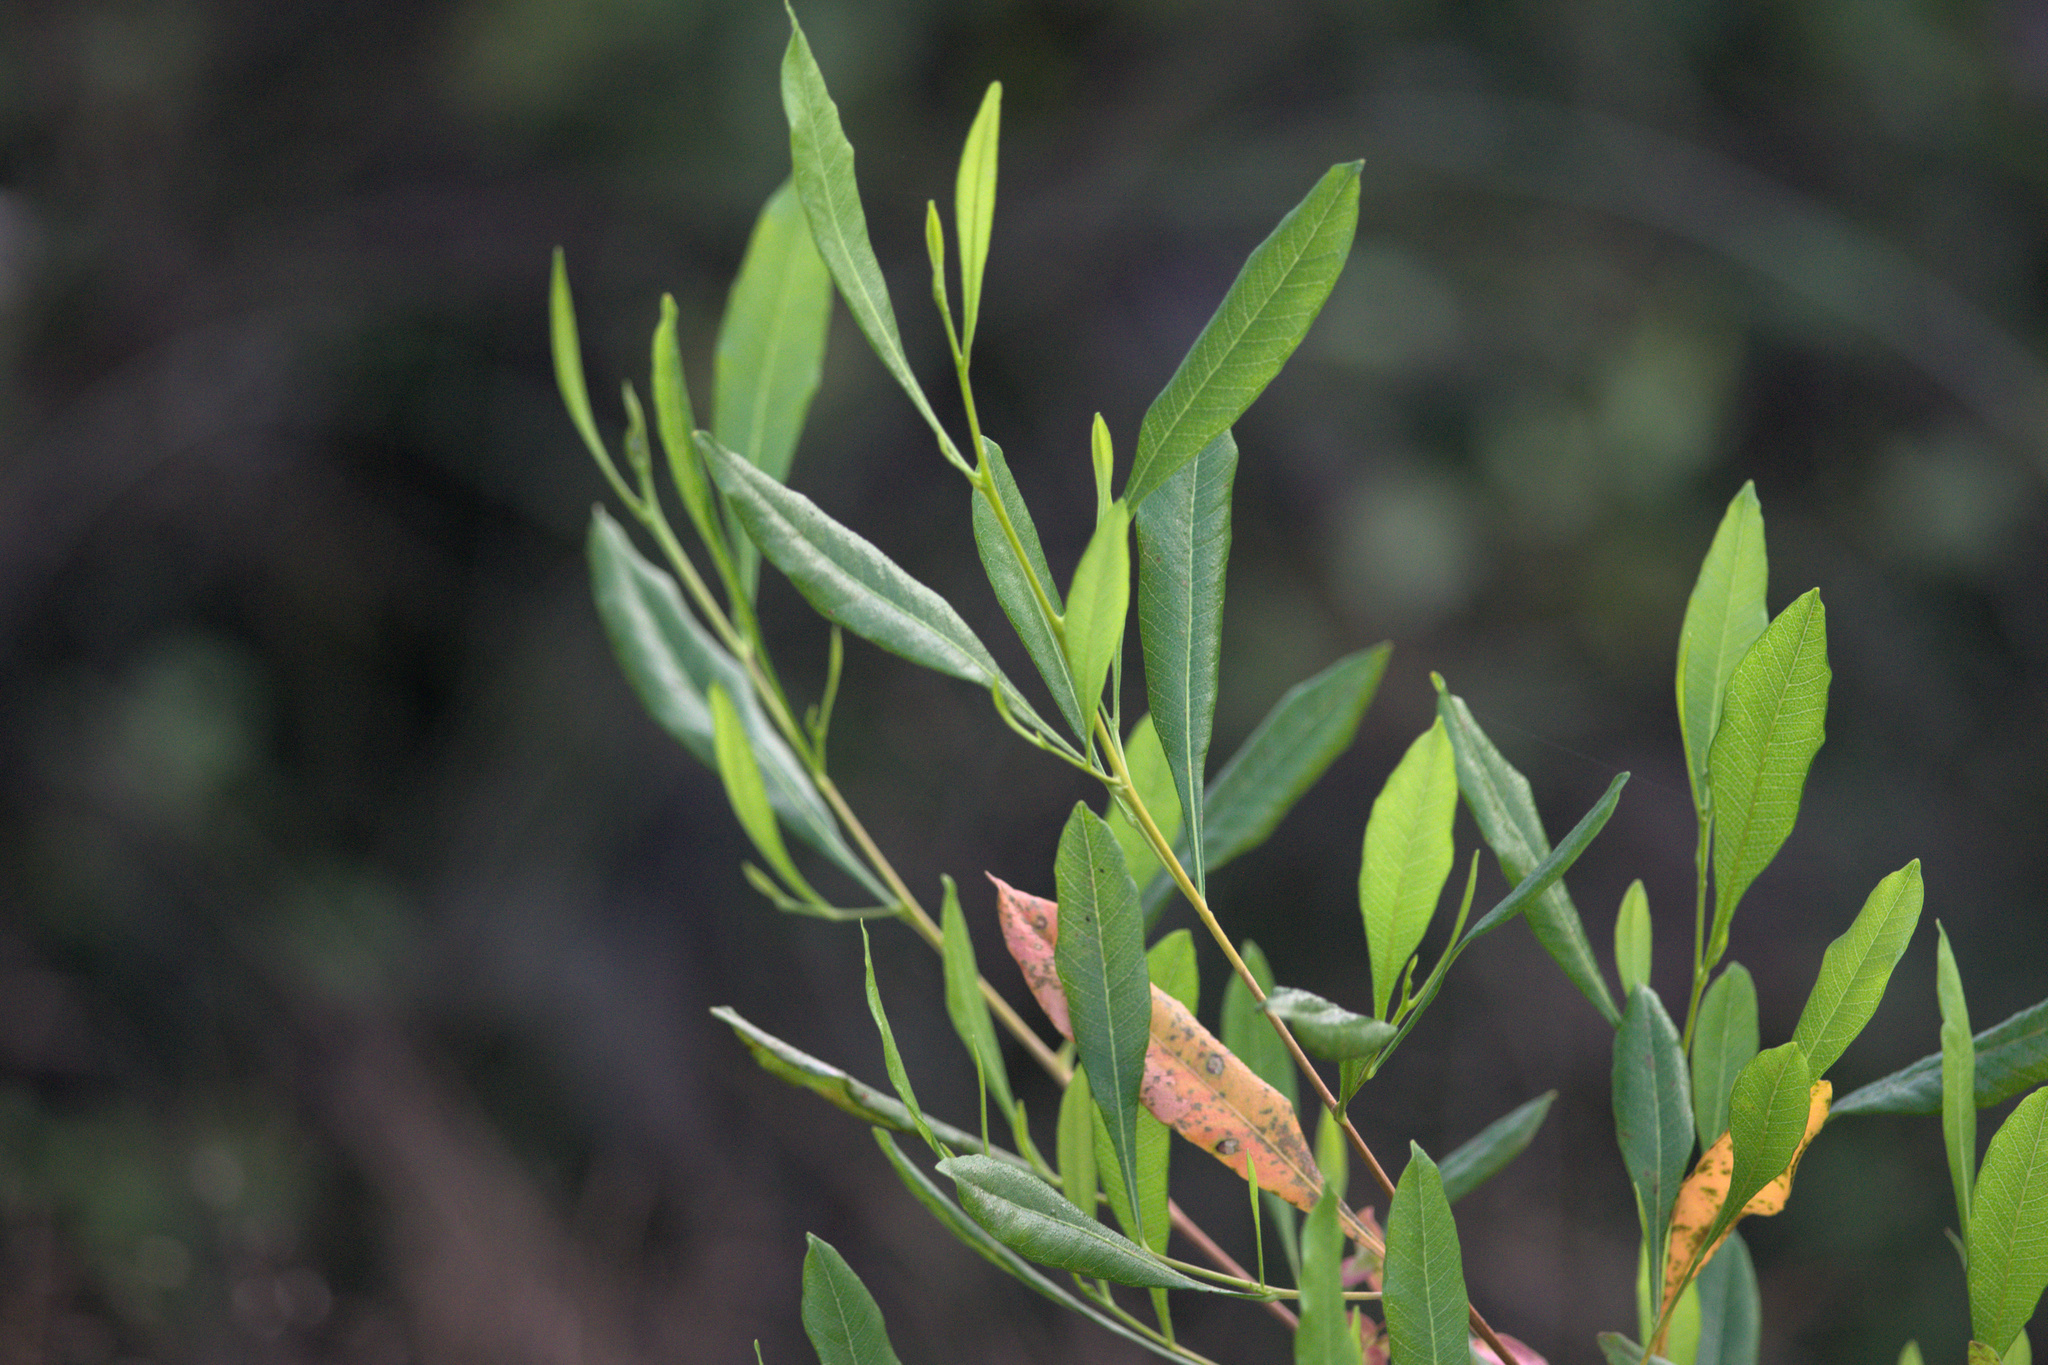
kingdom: Plantae
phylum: Tracheophyta
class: Magnoliopsida
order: Sapindales
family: Sapindaceae
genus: Dodonaea
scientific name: Dodonaea viscosa
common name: Hopbush
